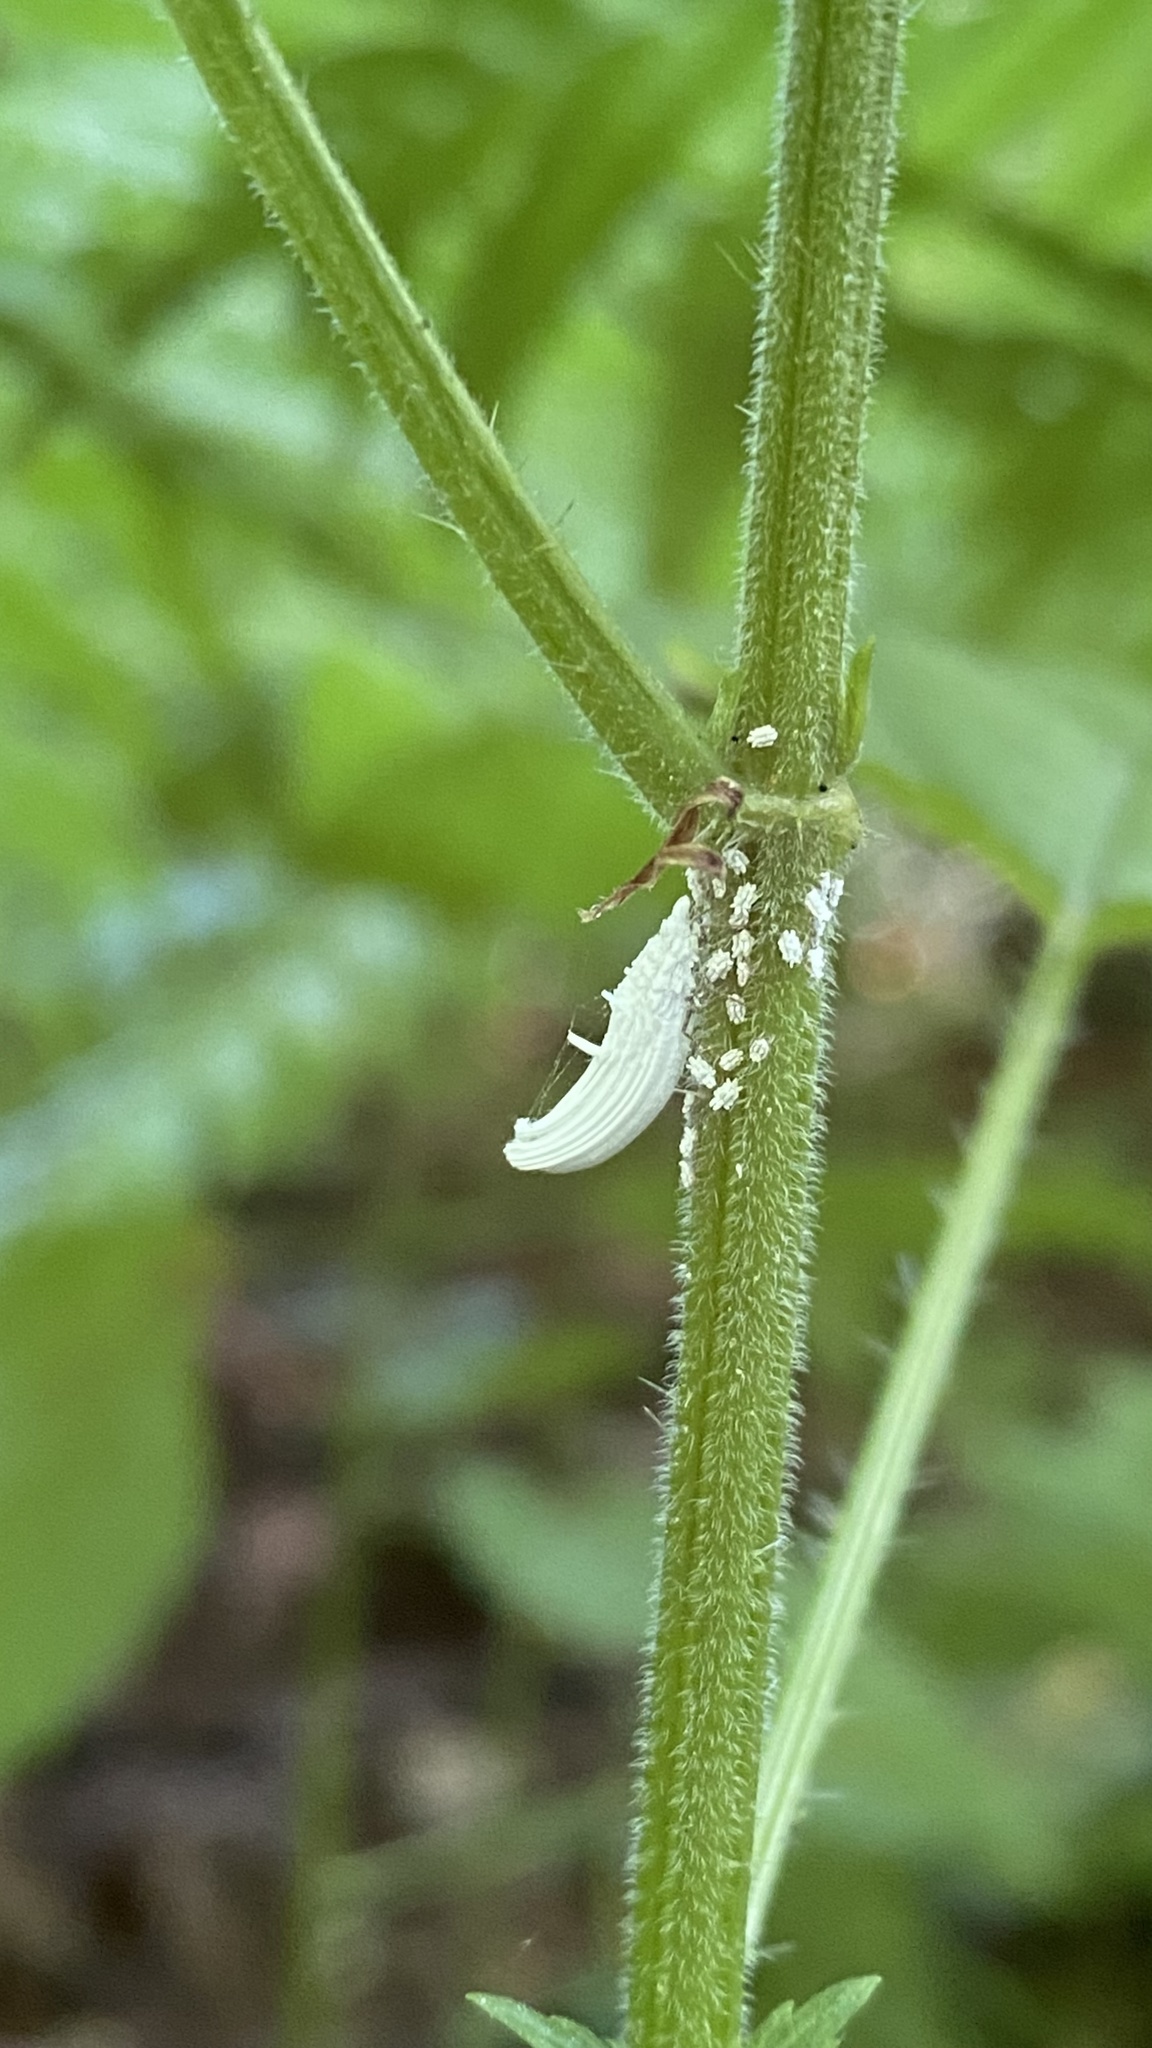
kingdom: Animalia
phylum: Arthropoda
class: Insecta
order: Hemiptera
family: Ortheziidae
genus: Orthezia
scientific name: Orthezia urticae
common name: Ensign coccid
